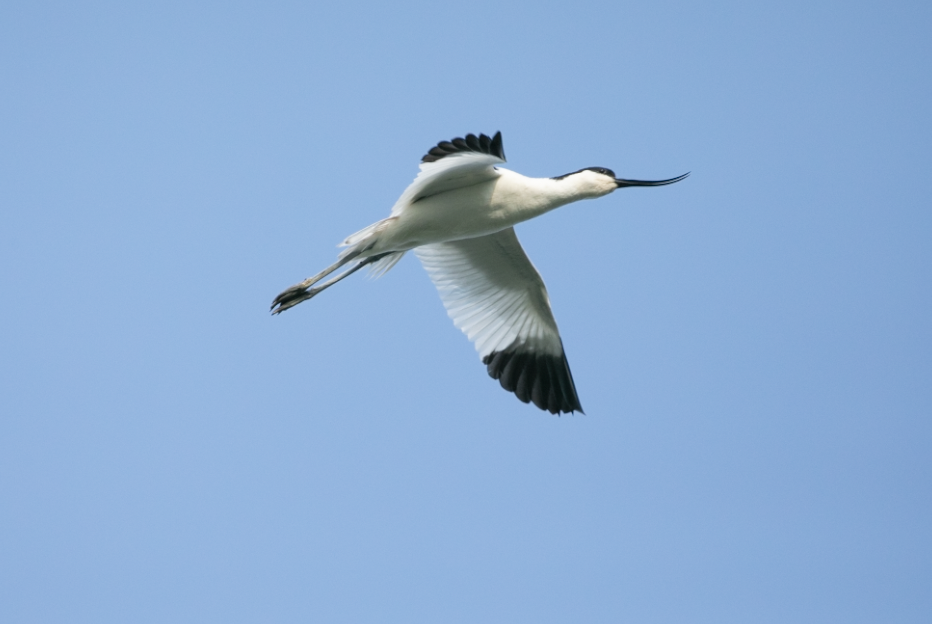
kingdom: Animalia
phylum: Chordata
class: Aves
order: Charadriiformes
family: Recurvirostridae
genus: Recurvirostra
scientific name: Recurvirostra avosetta
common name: Pied avocet
